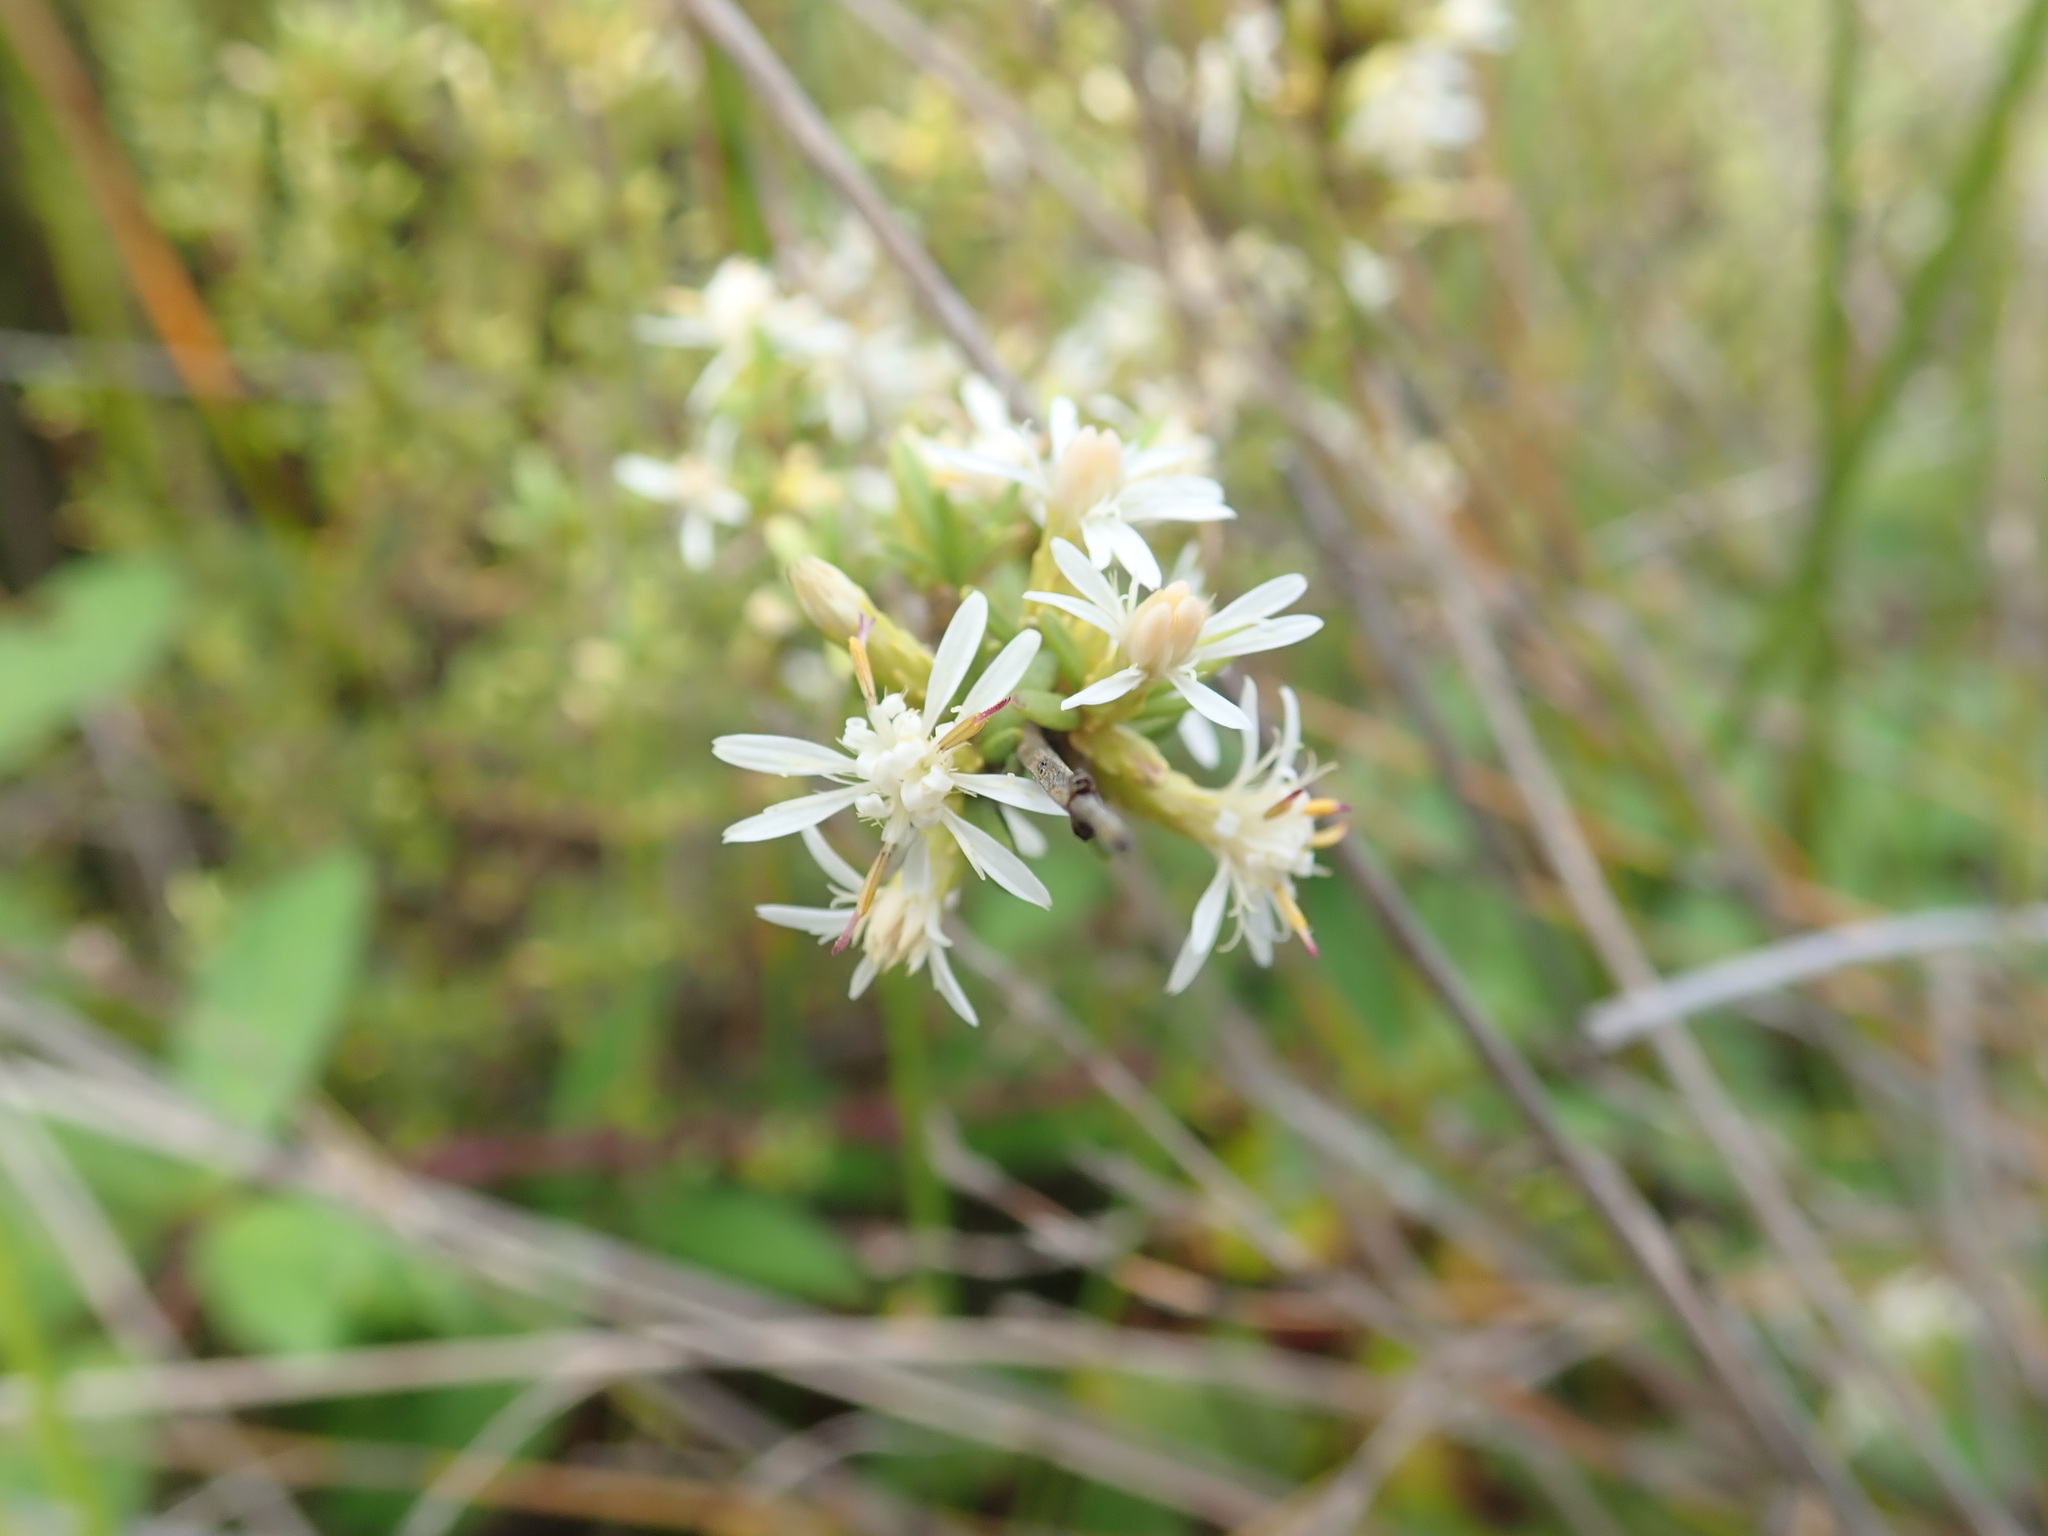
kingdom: Plantae
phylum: Tracheophyta
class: Magnoliopsida
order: Asterales
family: Asteraceae
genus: Olearia
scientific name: Olearia solandri
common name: Coastal daisybush
